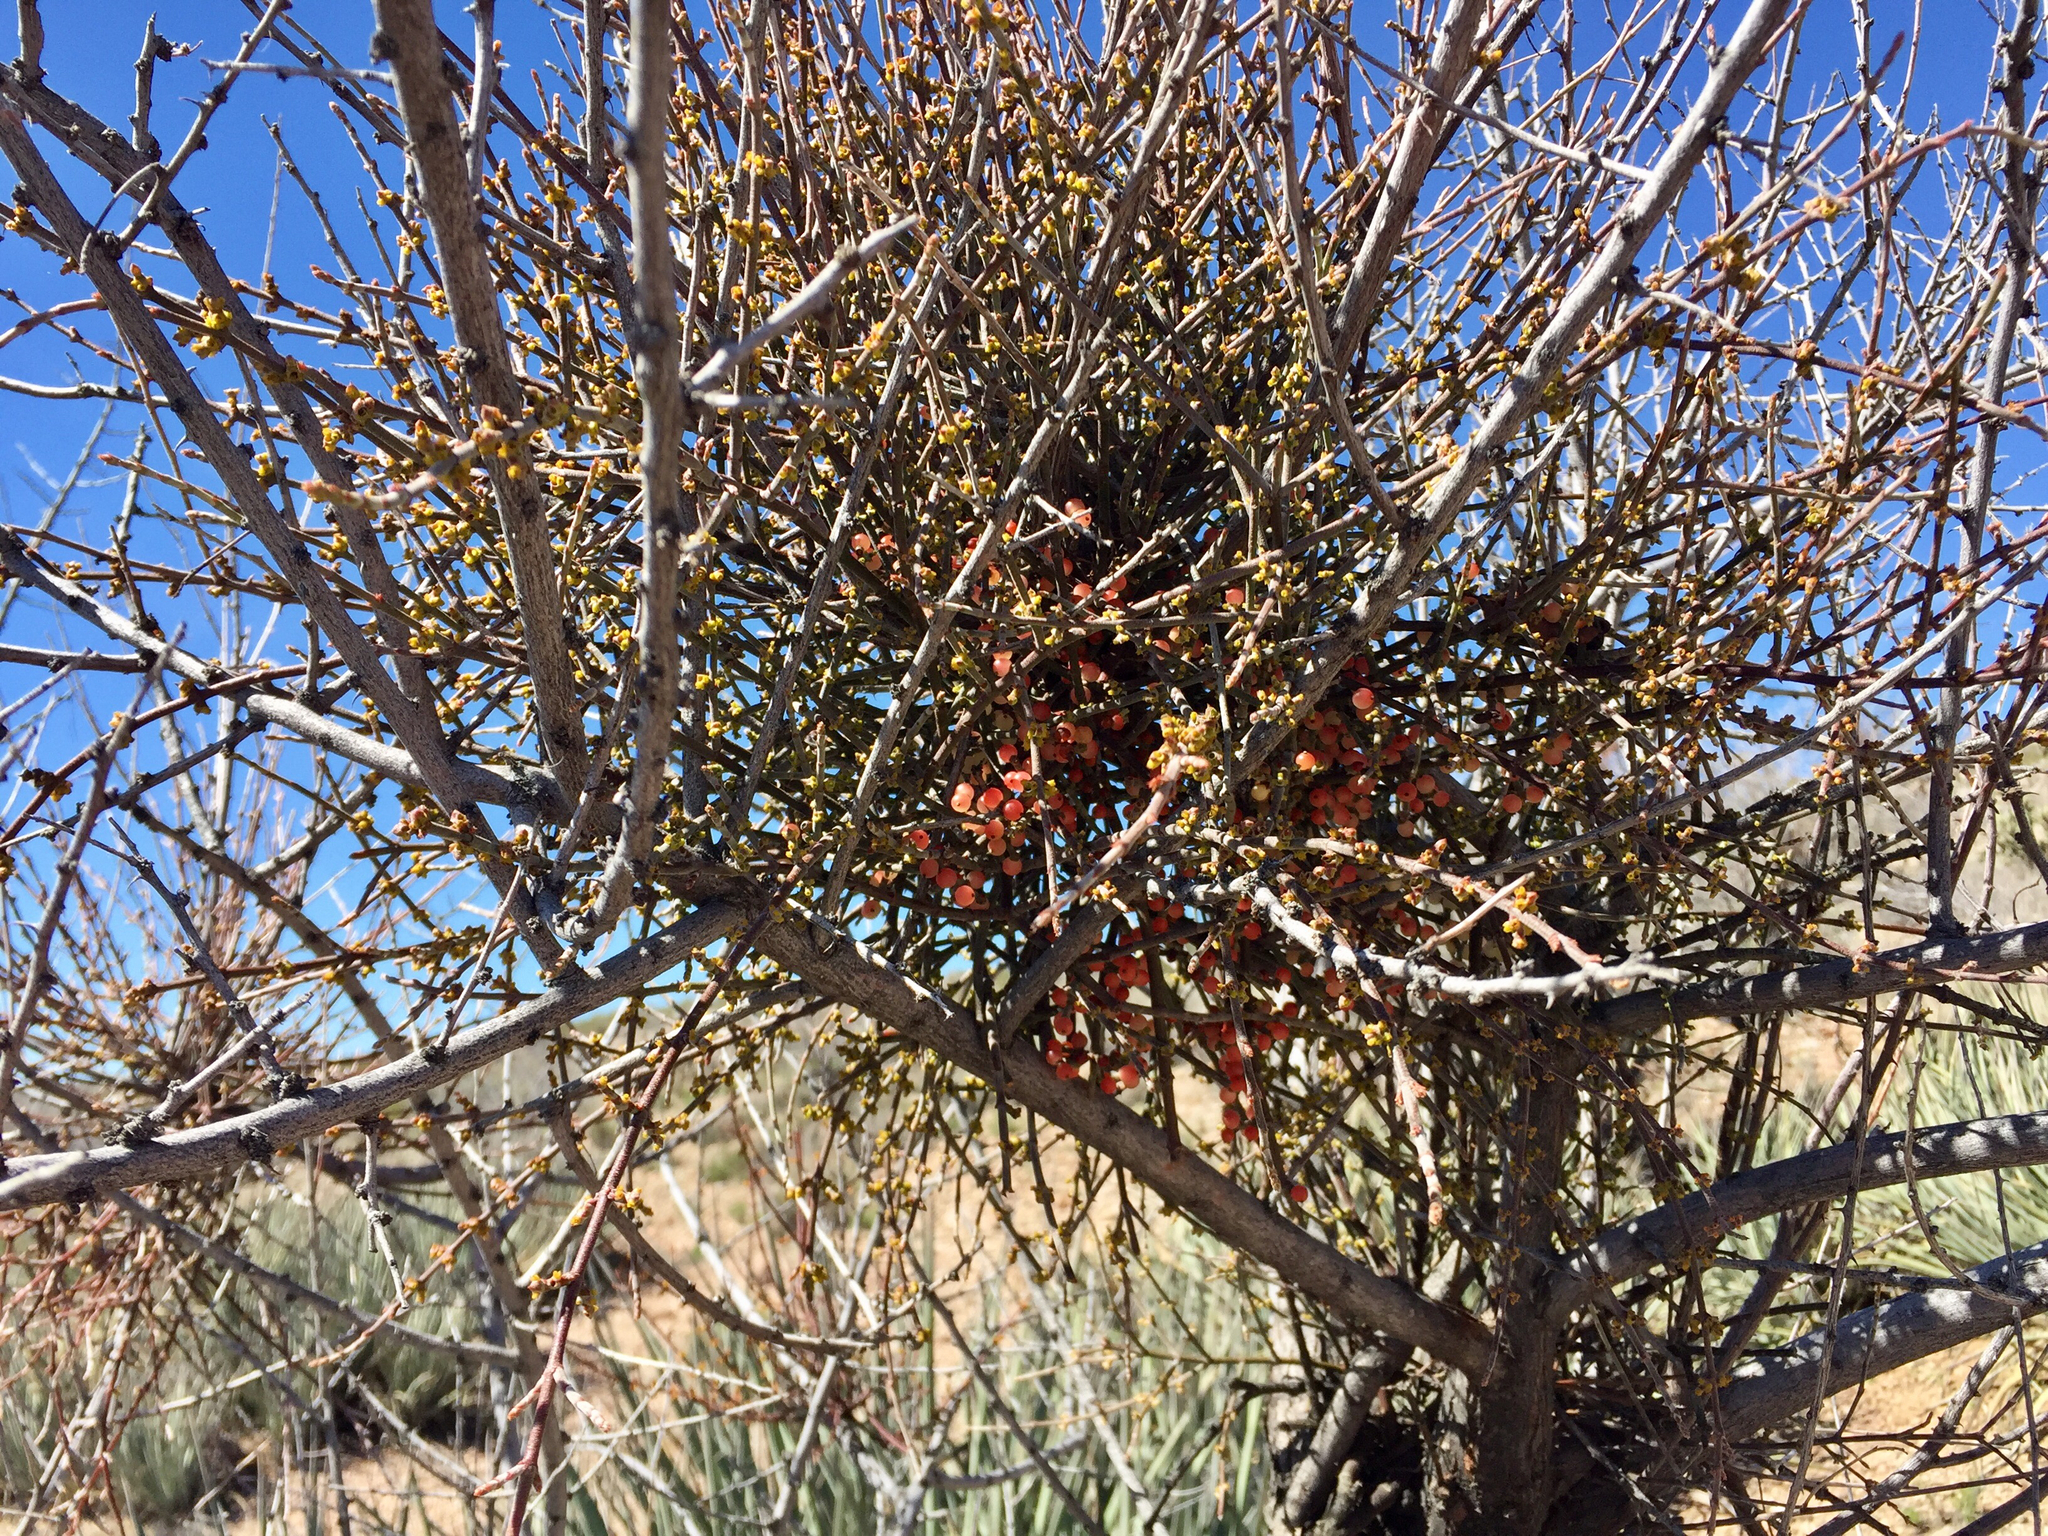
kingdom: Plantae
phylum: Tracheophyta
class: Magnoliopsida
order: Santalales
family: Viscaceae
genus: Phoradendron
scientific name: Phoradendron californicum
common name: Acacia mistletoe
